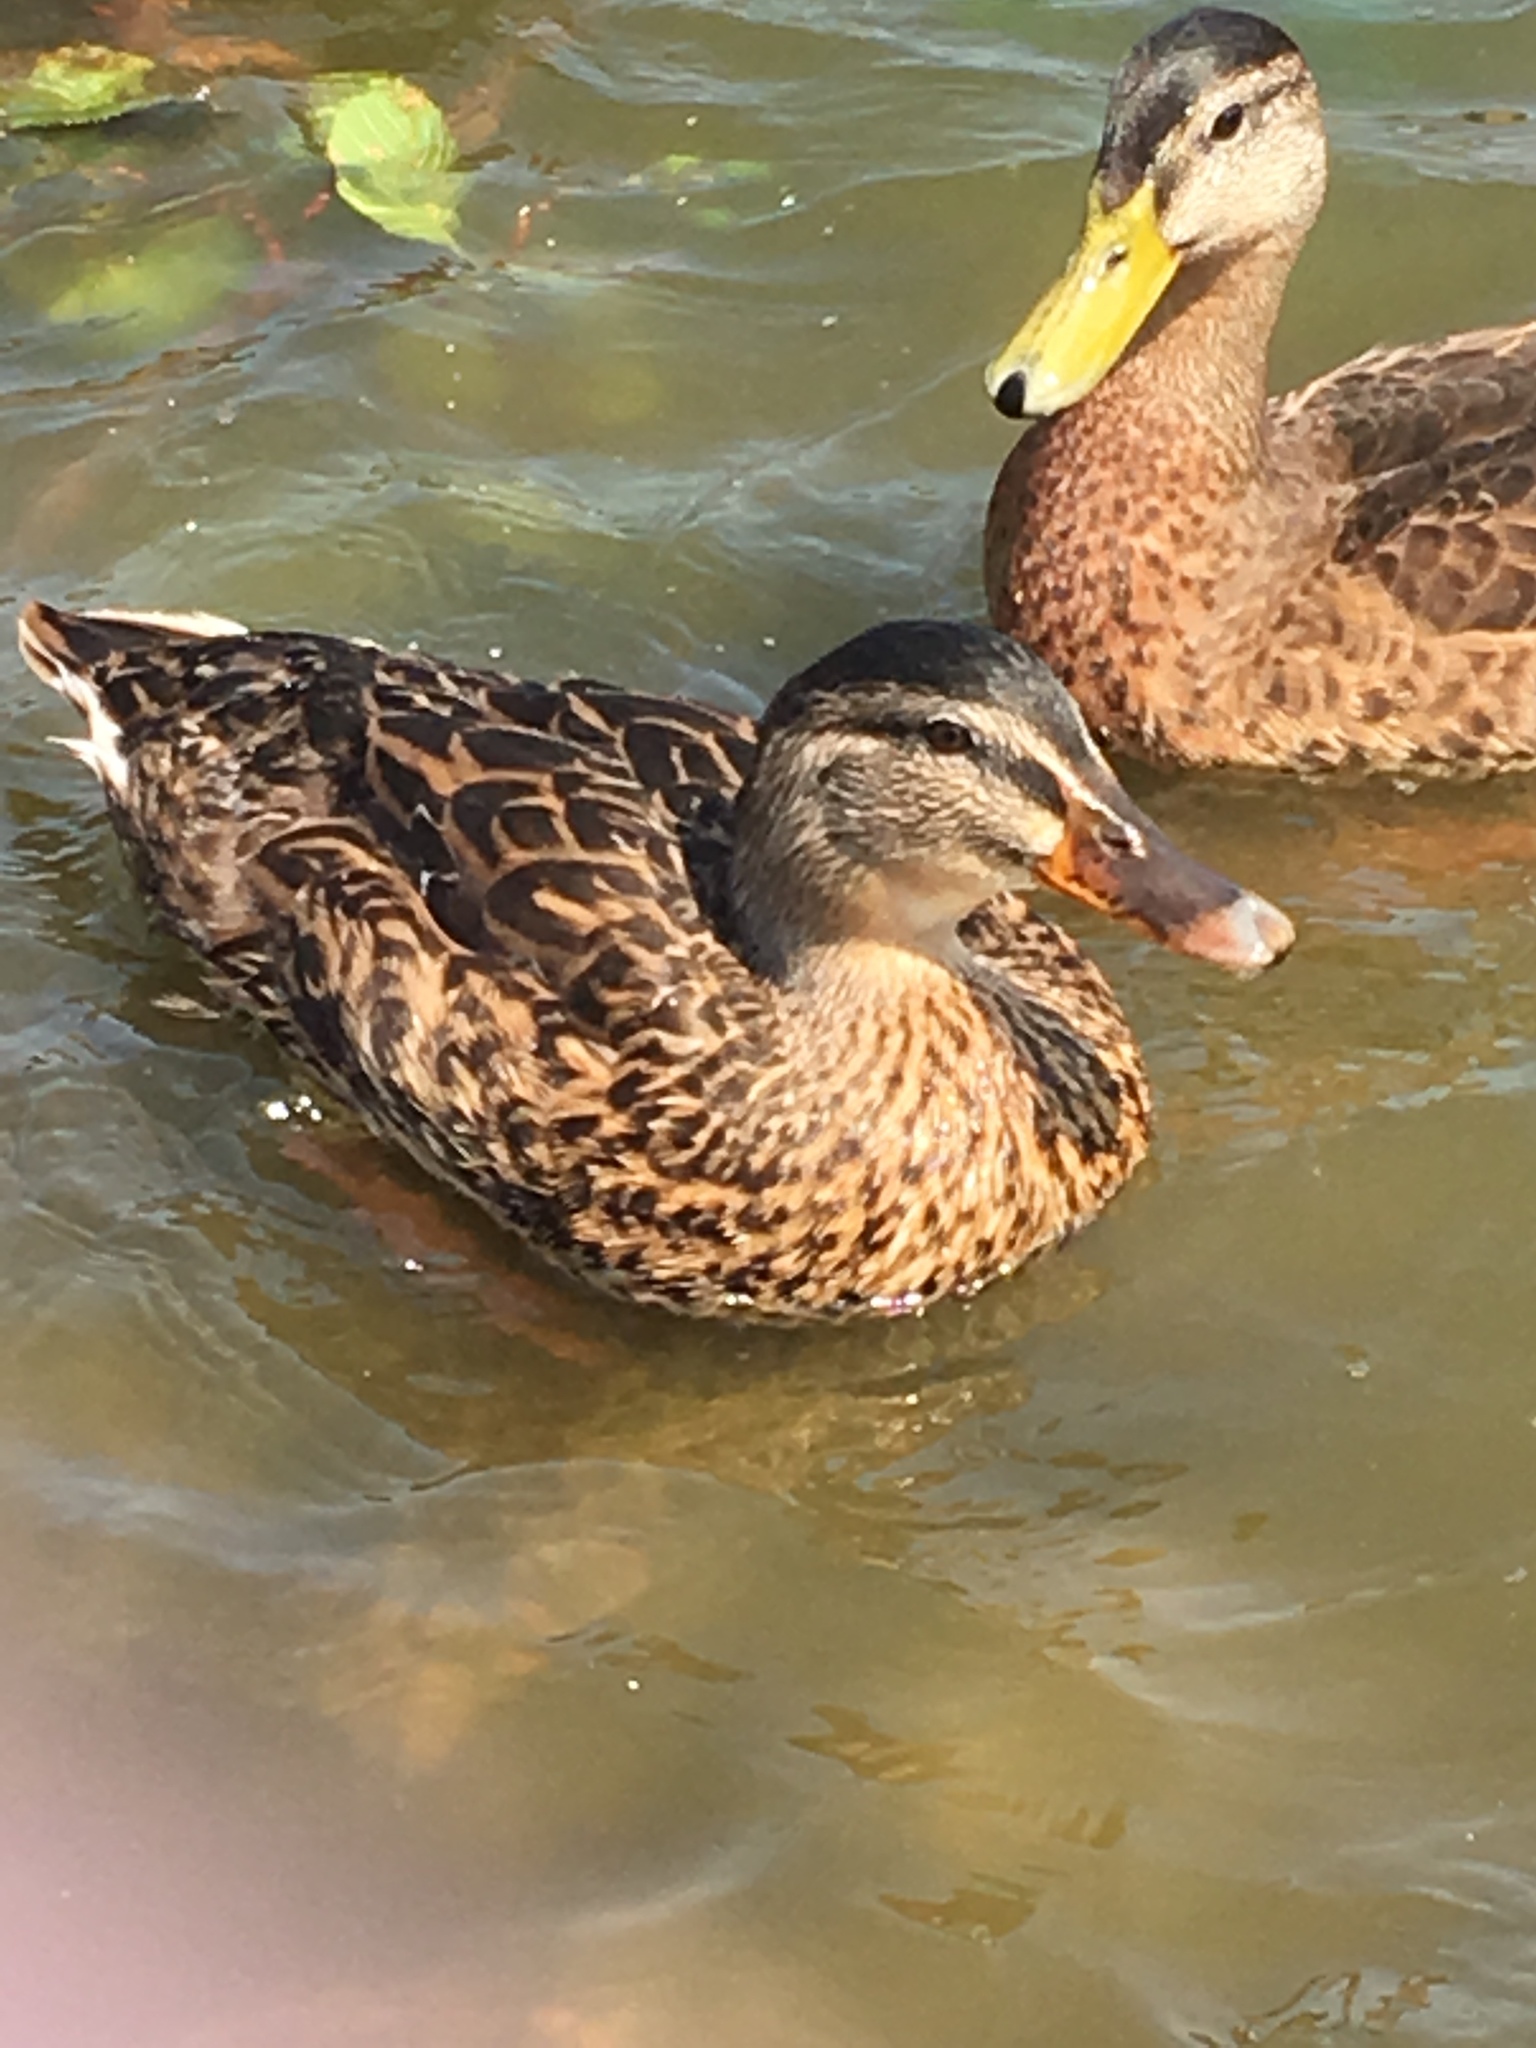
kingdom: Animalia
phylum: Chordata
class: Aves
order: Anseriformes
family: Anatidae
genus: Anas
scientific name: Anas platyrhynchos
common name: Mallard
